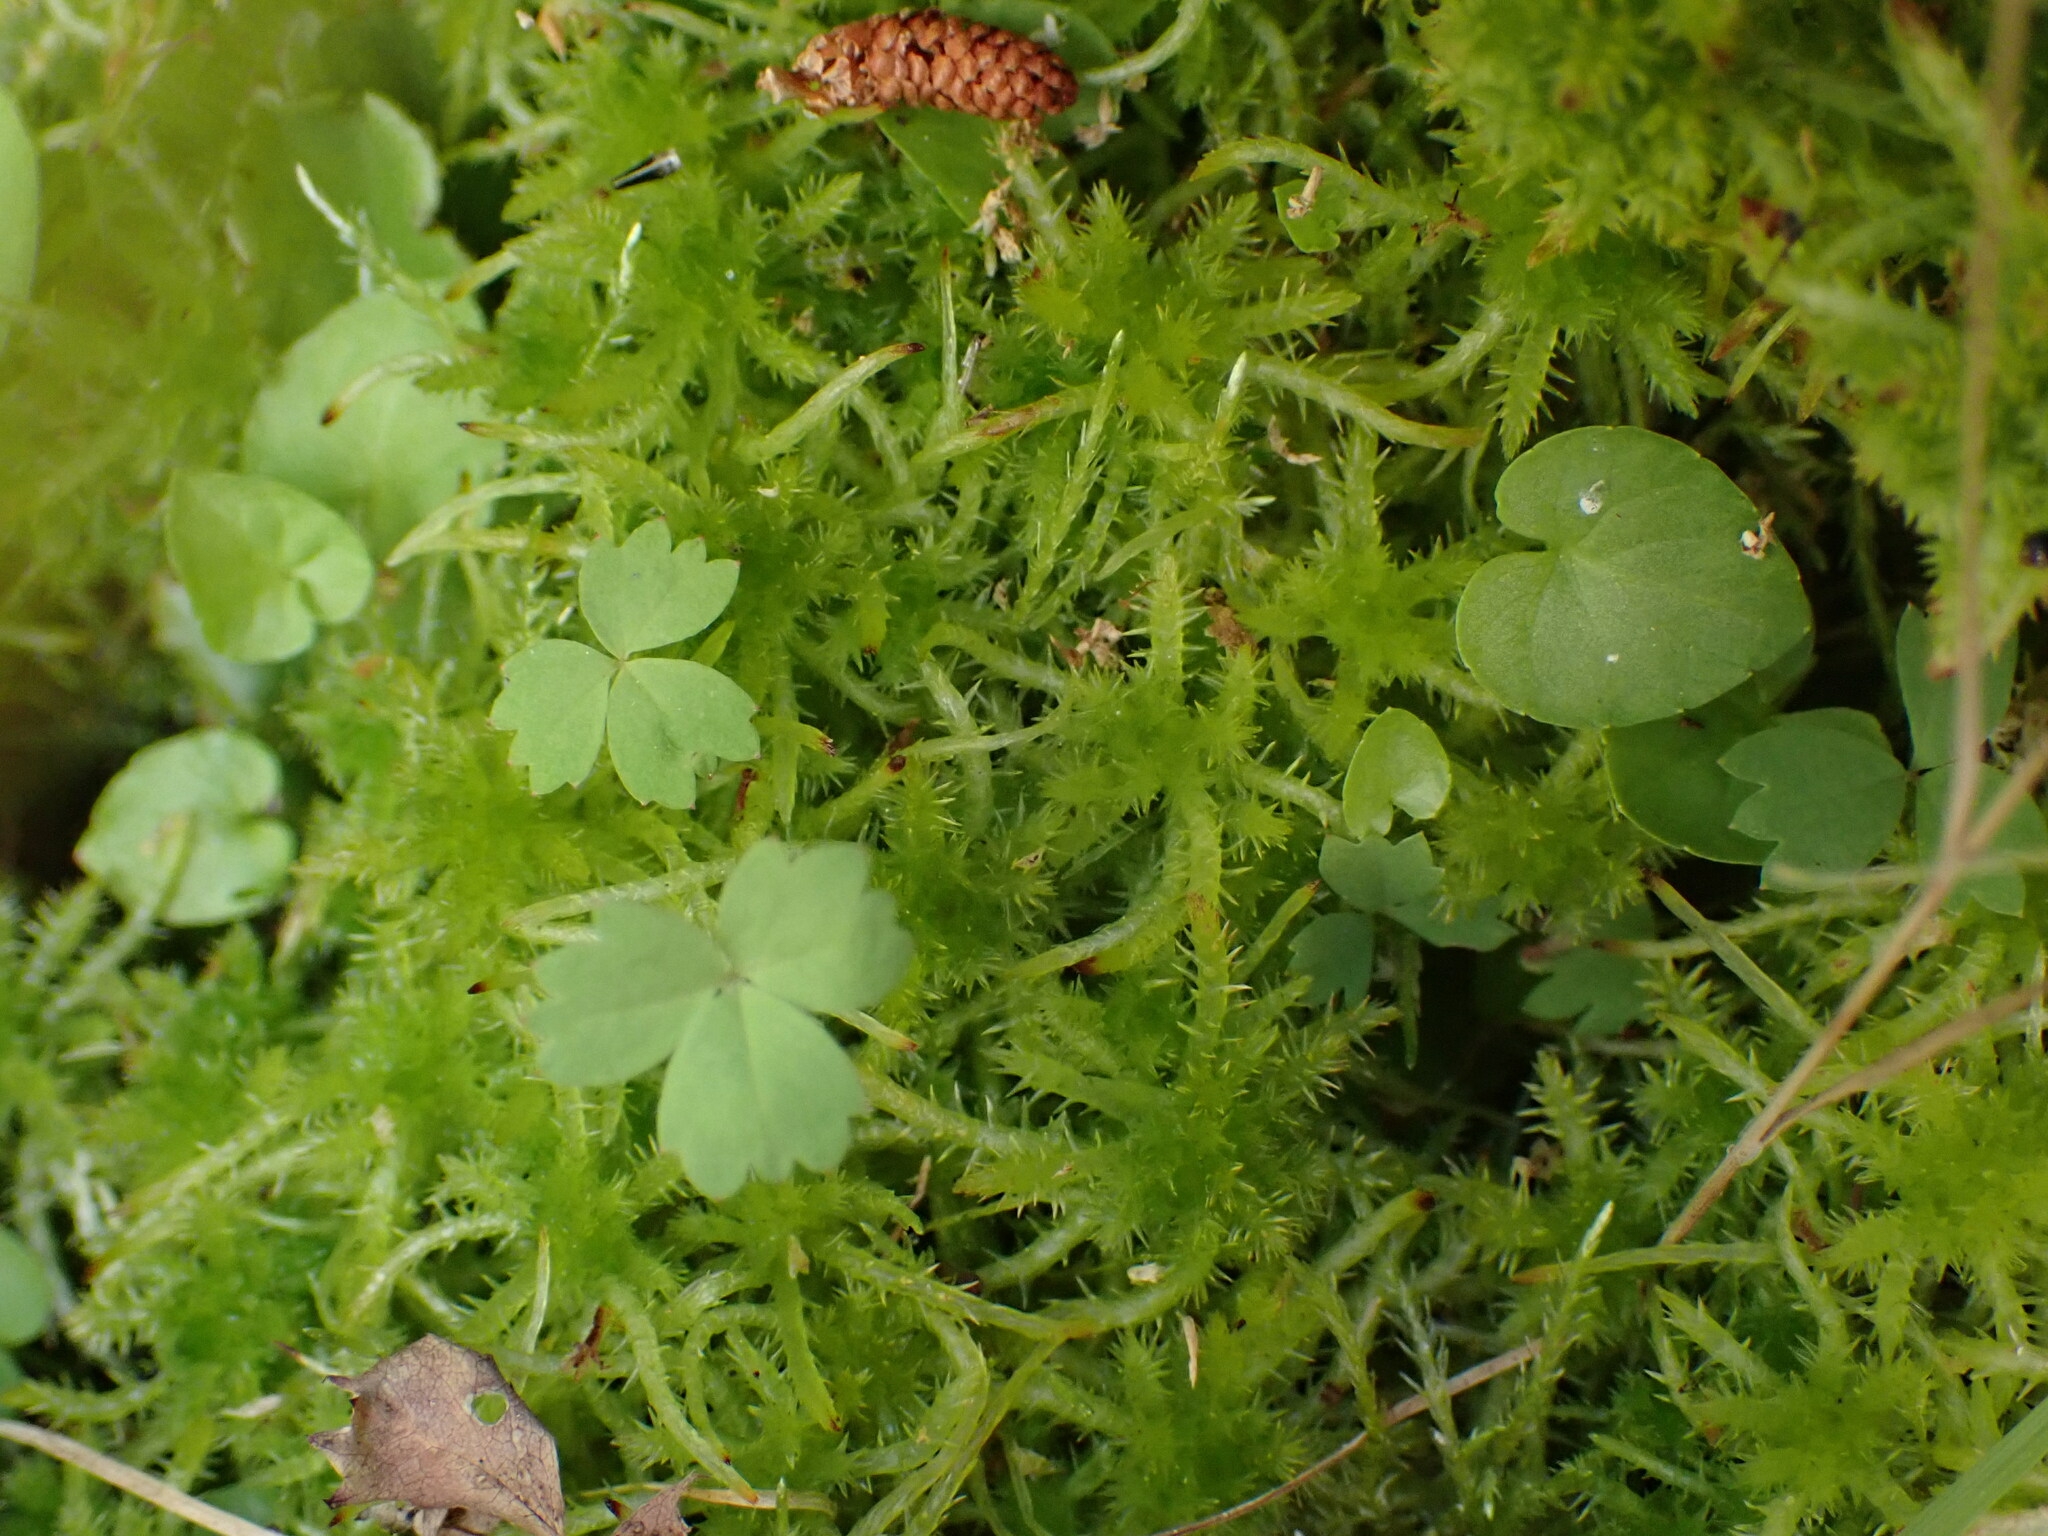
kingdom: Plantae
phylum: Bryophyta
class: Sphagnopsida
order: Sphagnales
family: Sphagnaceae
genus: Sphagnum
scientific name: Sphagnum squarrosum
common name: Shaggy peat moss
